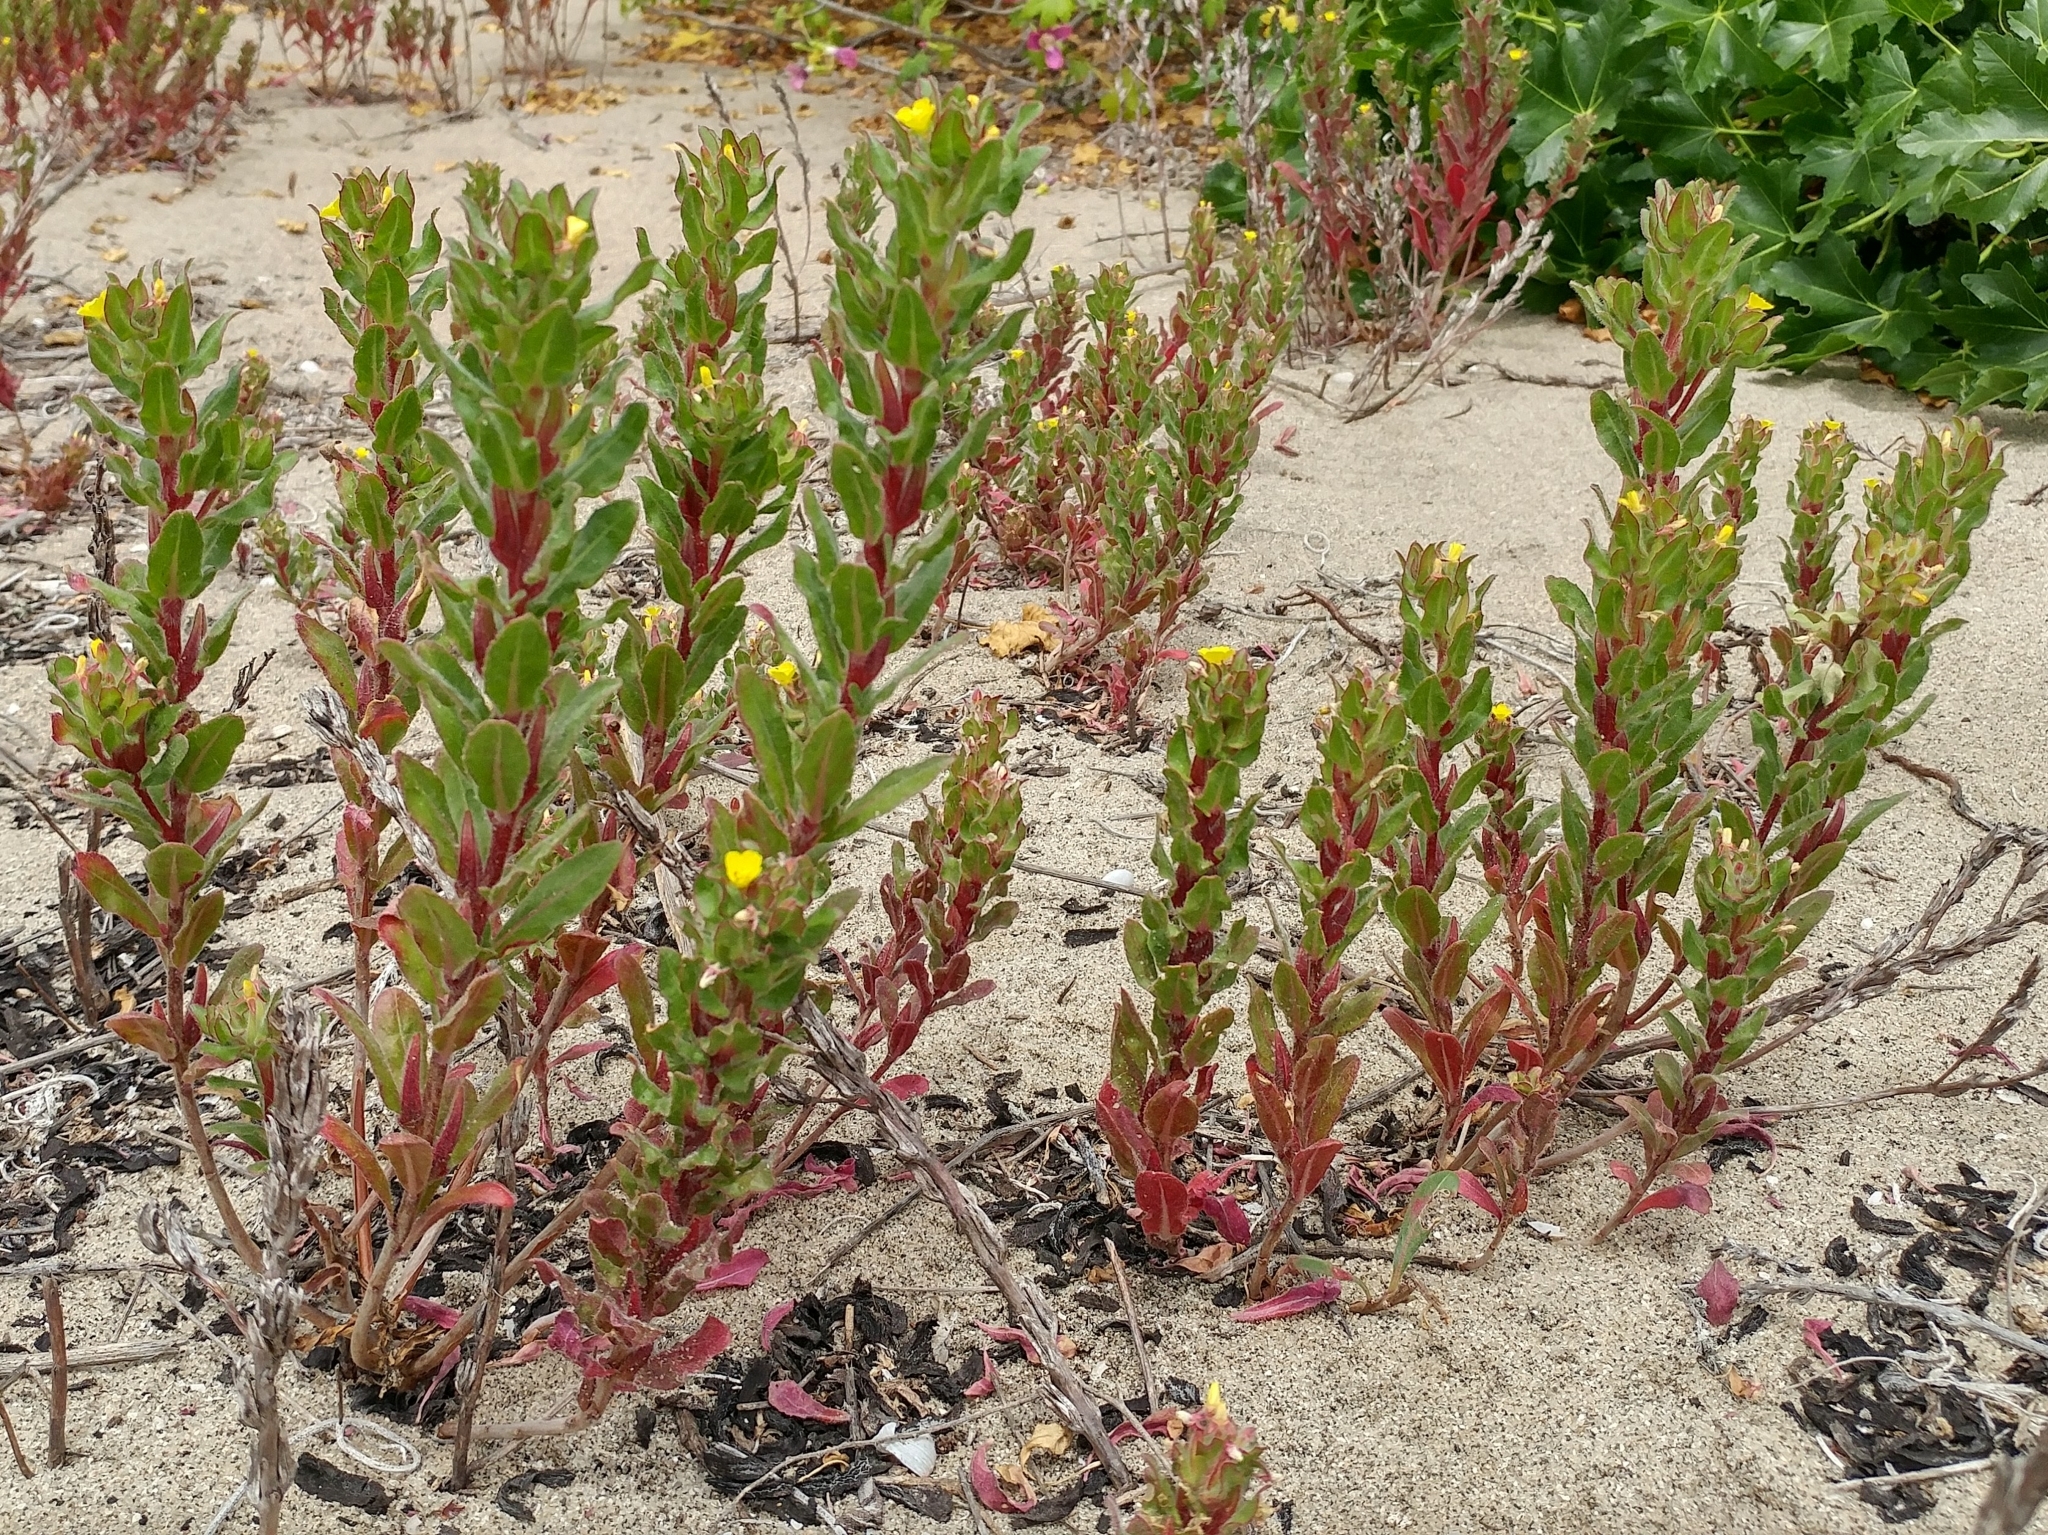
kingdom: Plantae
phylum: Tracheophyta
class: Magnoliopsida
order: Myrtales
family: Onagraceae
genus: Camissoniopsis
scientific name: Camissoniopsis guadalupensis
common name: Guadalupe suncup
